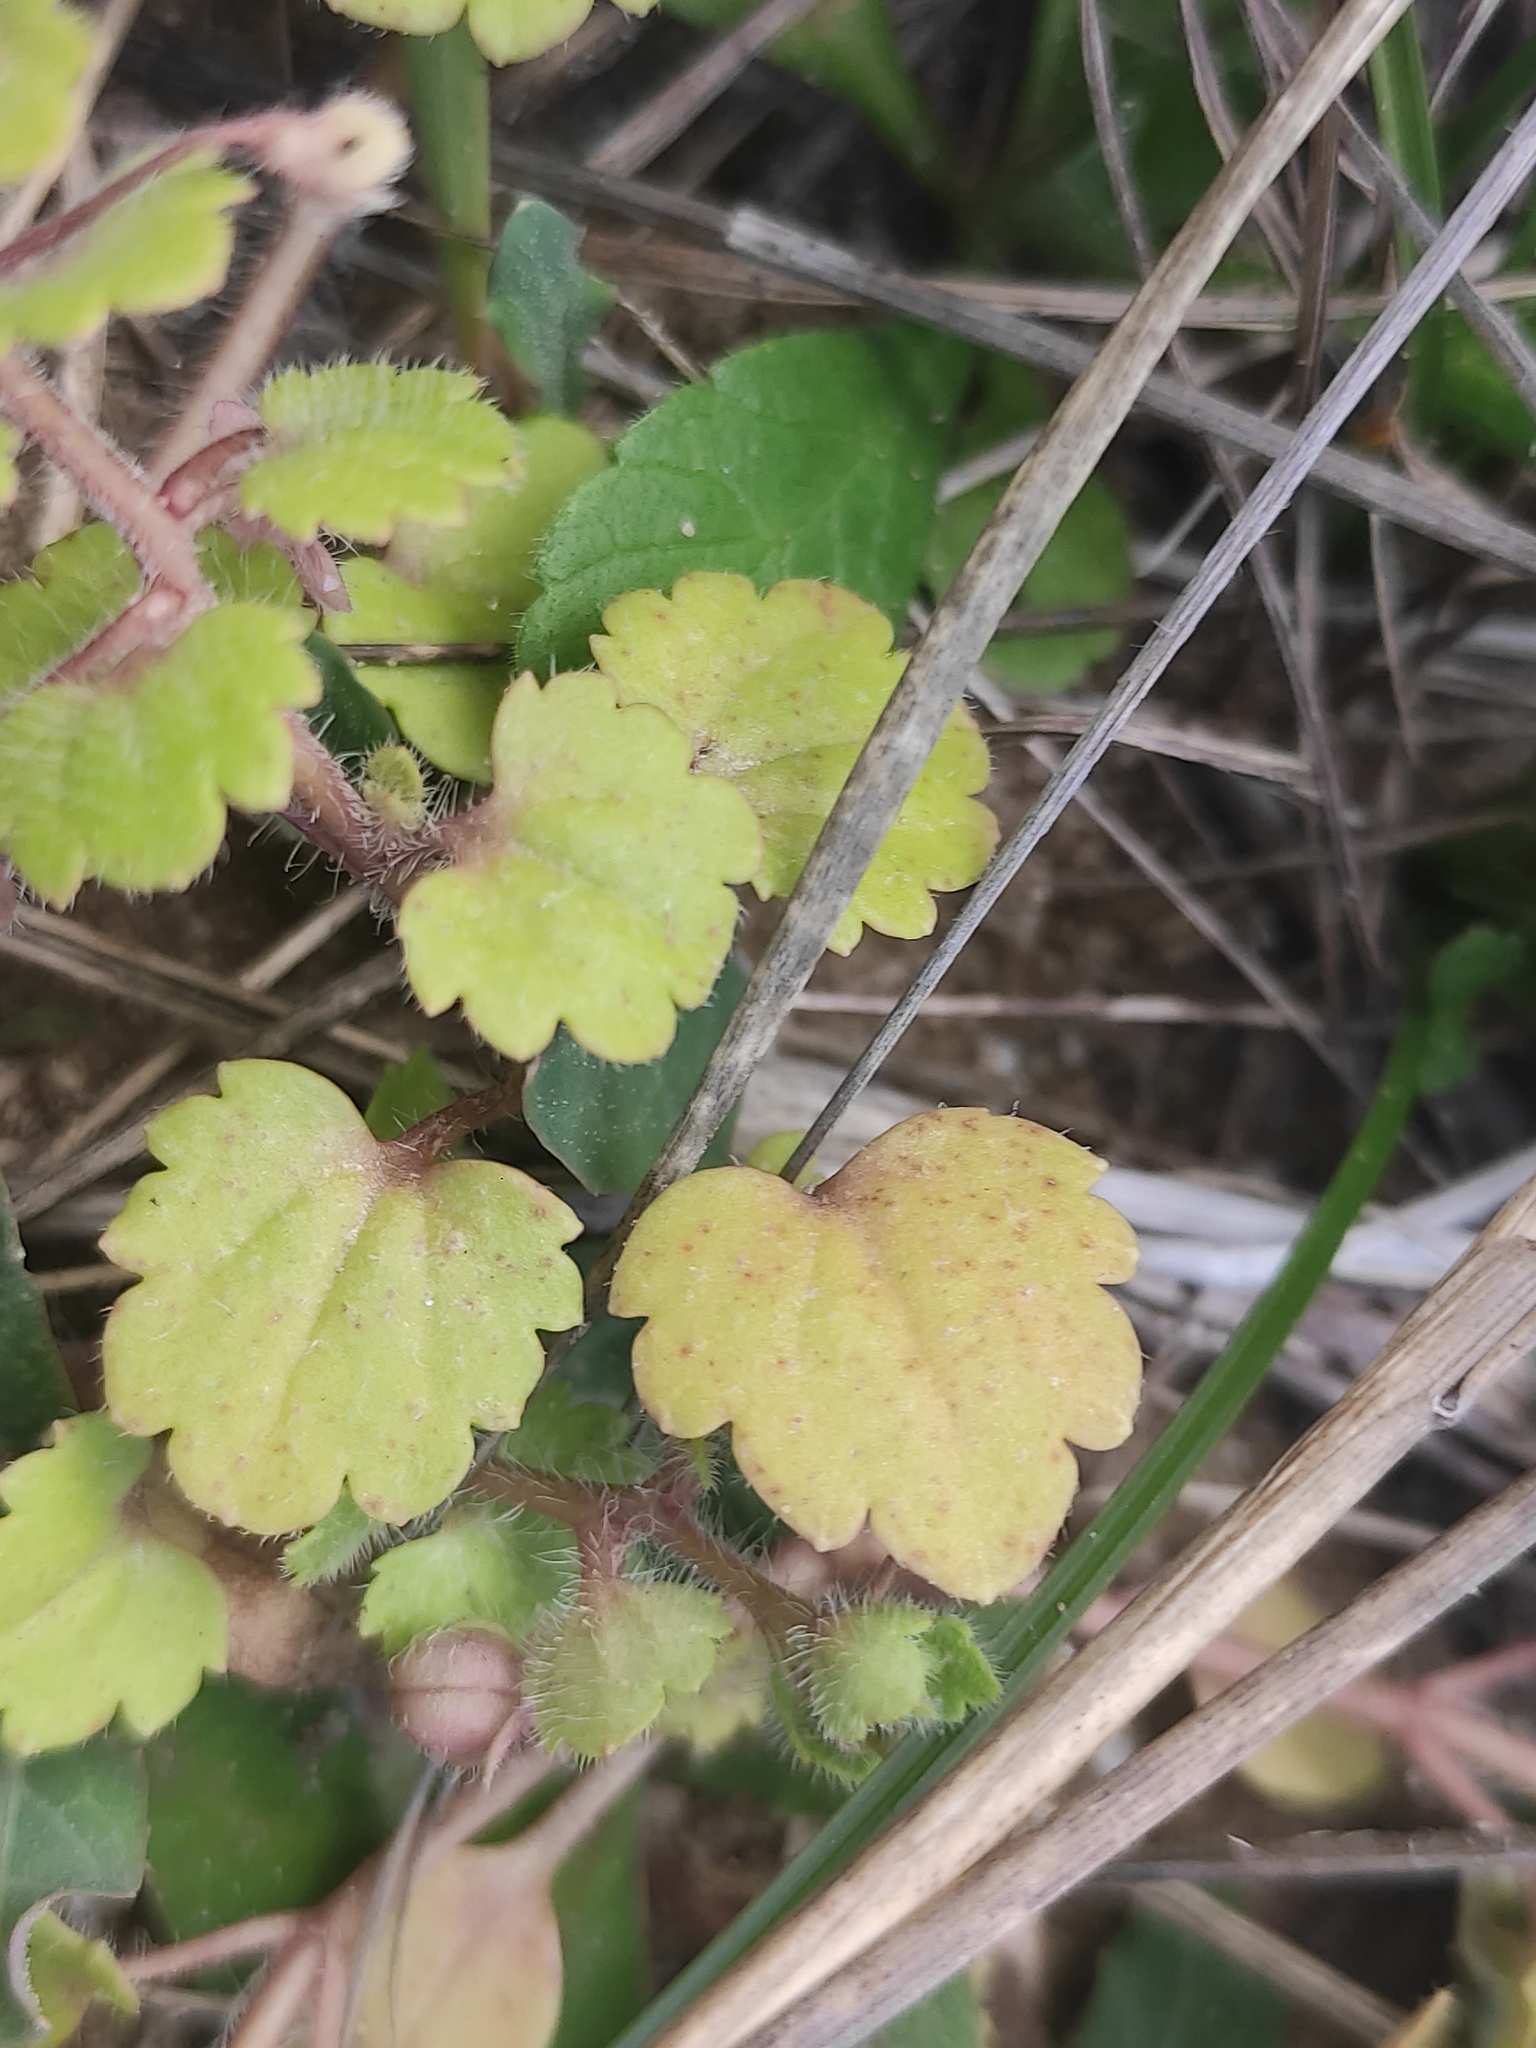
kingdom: Plantae
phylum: Tracheophyta
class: Magnoliopsida
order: Lamiales
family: Plantaginaceae
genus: Veronica
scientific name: Veronica cymbalaria
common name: Pale speedwell
